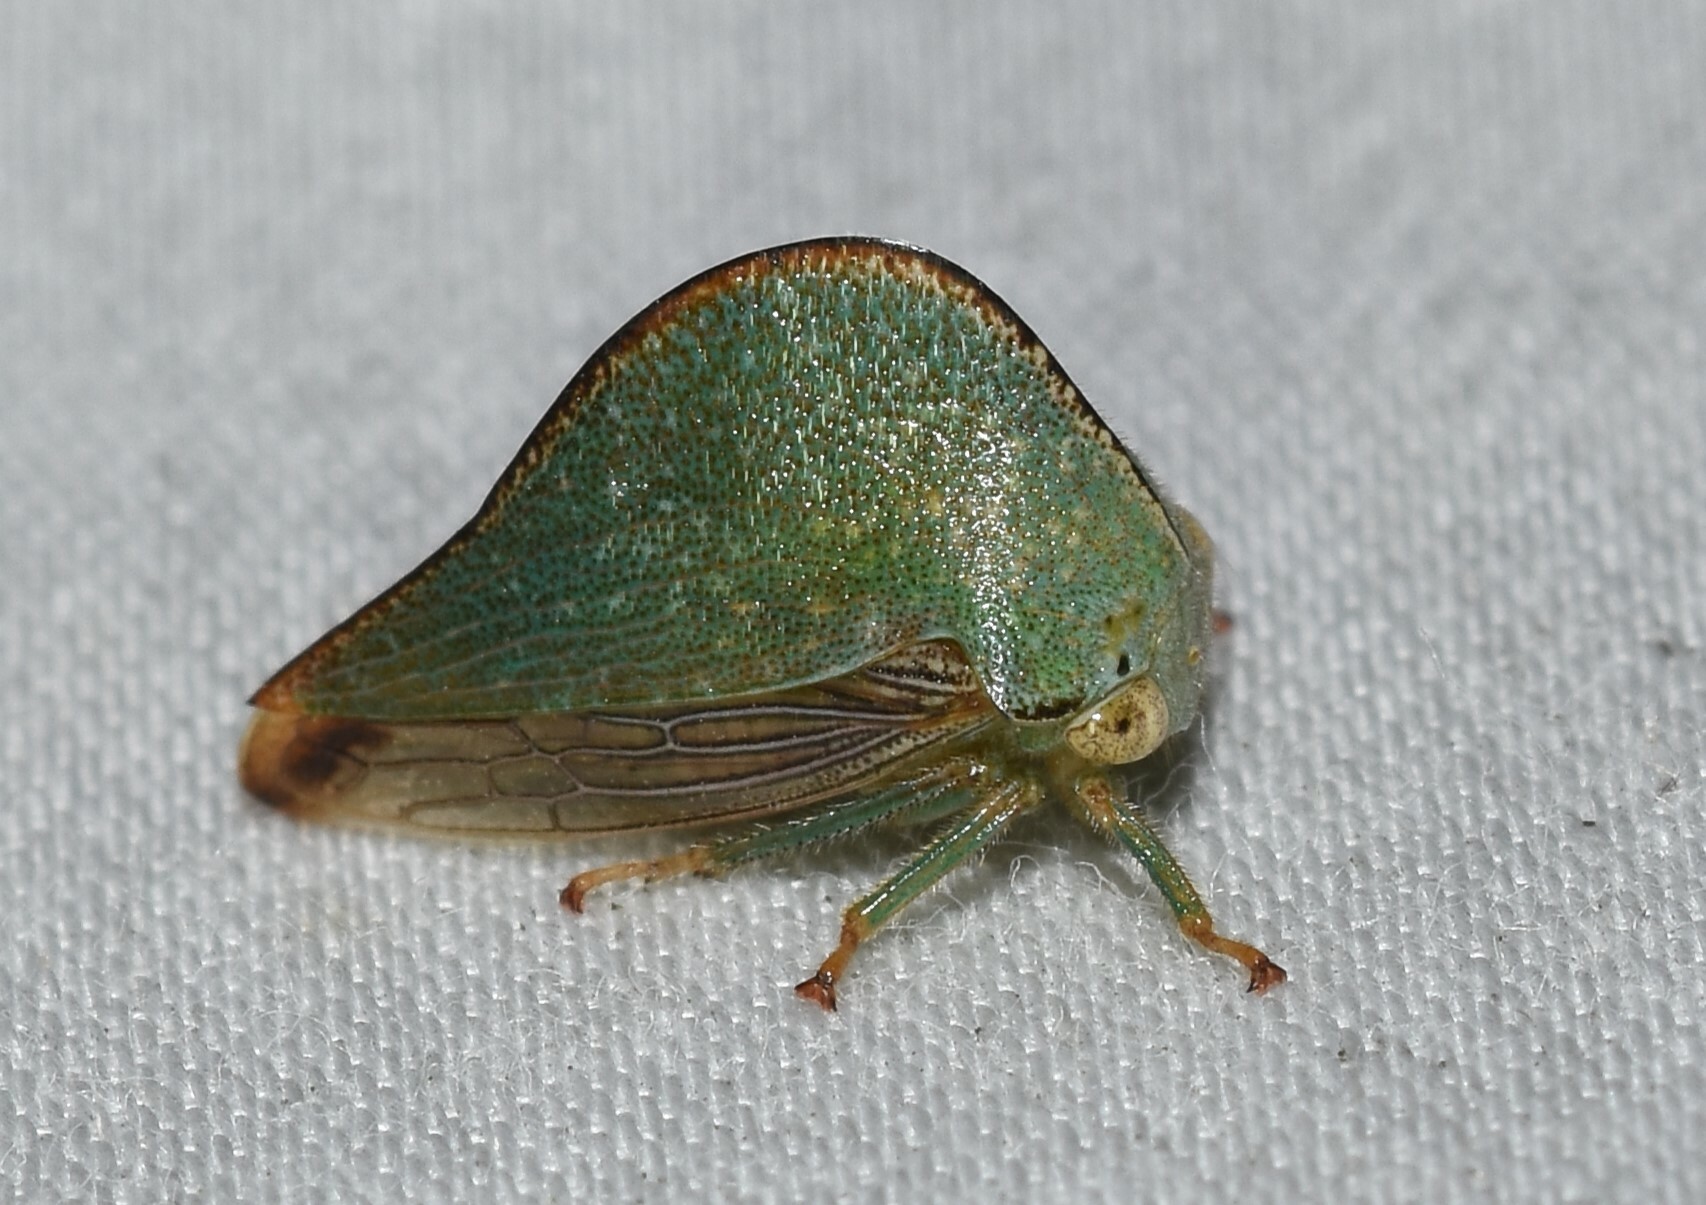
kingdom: Animalia
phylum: Arthropoda
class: Insecta
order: Hemiptera
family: Membracidae
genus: Archasia
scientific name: Archasia pallida
